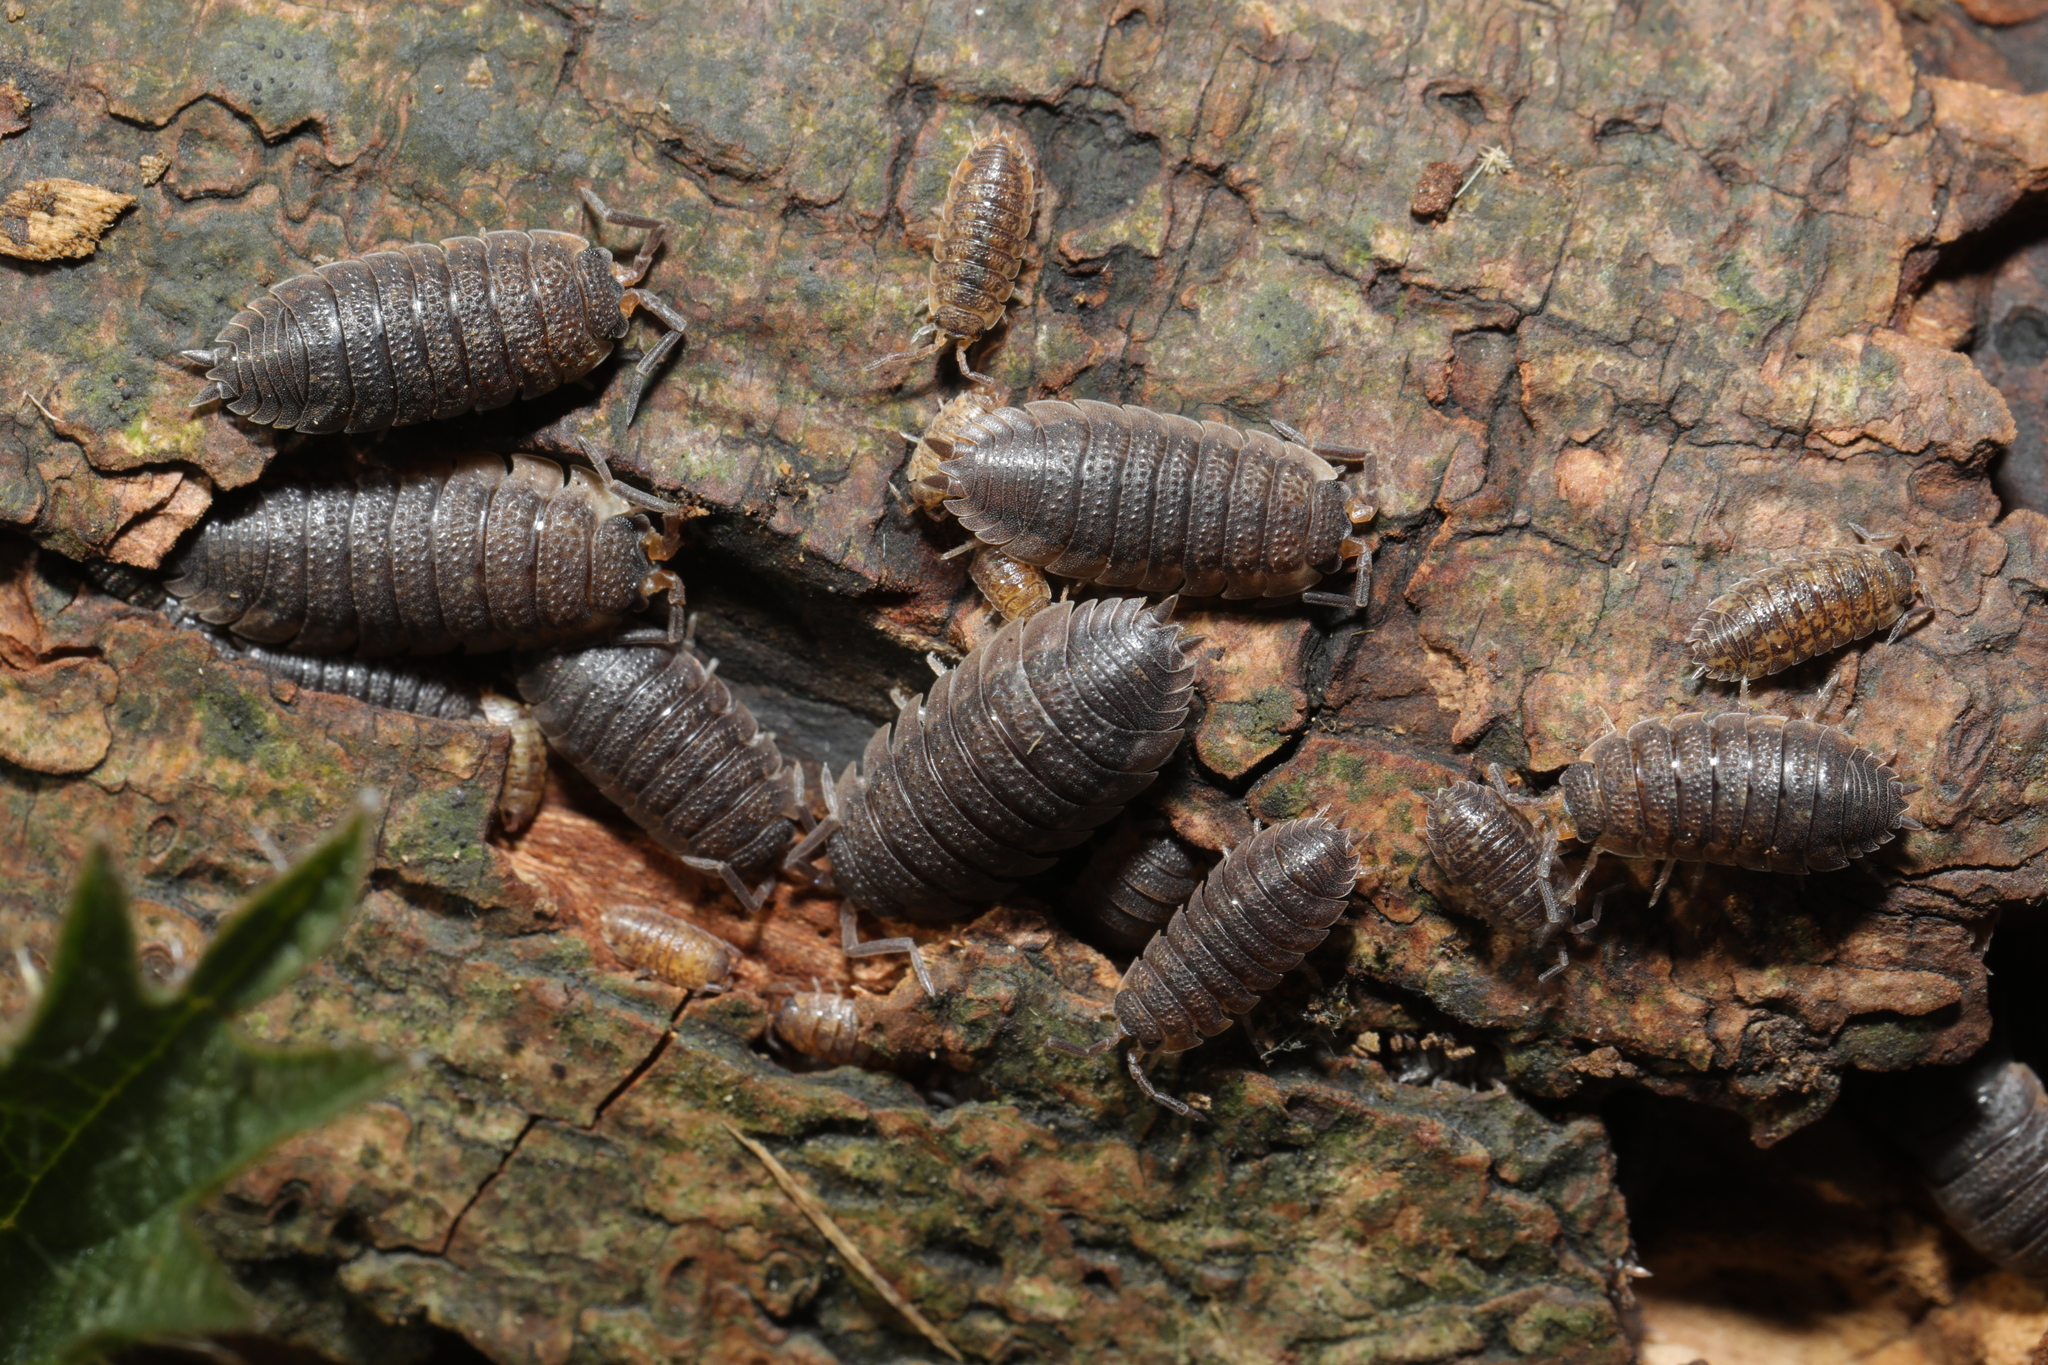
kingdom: Animalia
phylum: Arthropoda
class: Malacostraca
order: Isopoda
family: Porcellionidae
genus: Porcellio
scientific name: Porcellio scaber
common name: Common rough woodlouse
